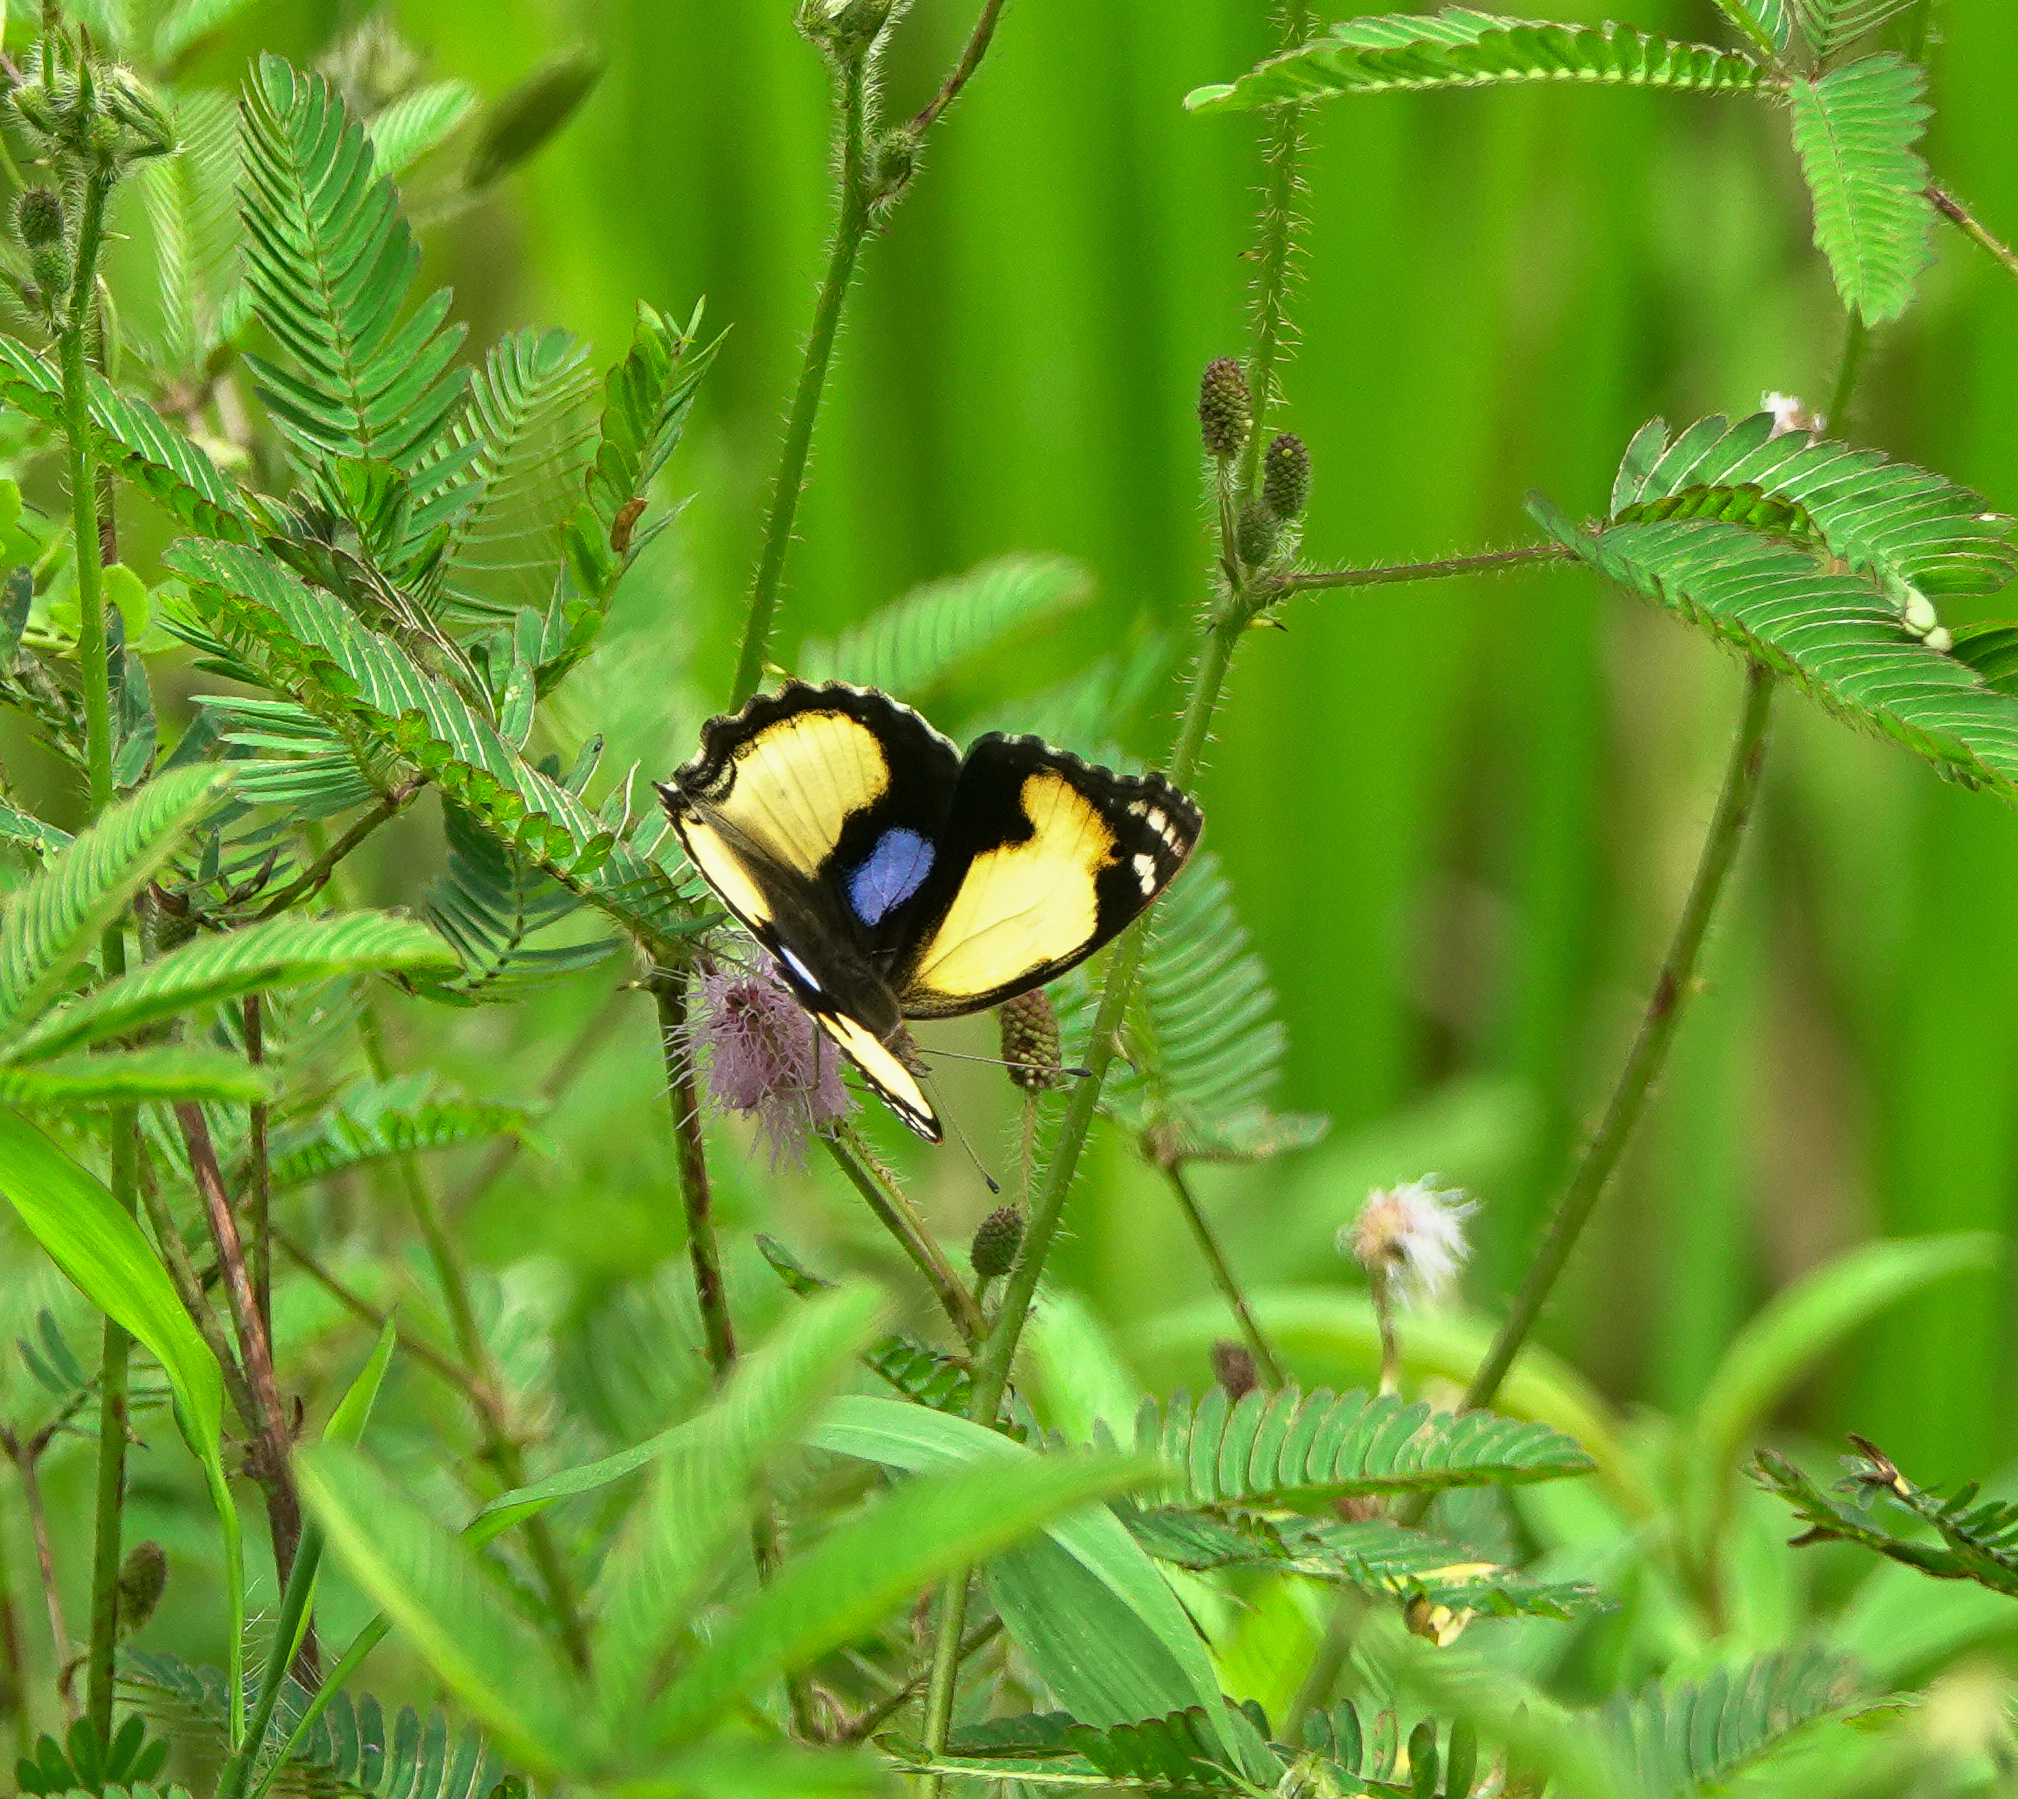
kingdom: Animalia
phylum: Arthropoda
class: Insecta
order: Lepidoptera
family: Nymphalidae
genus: Junonia
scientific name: Junonia hierta
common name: Yellow pansy
